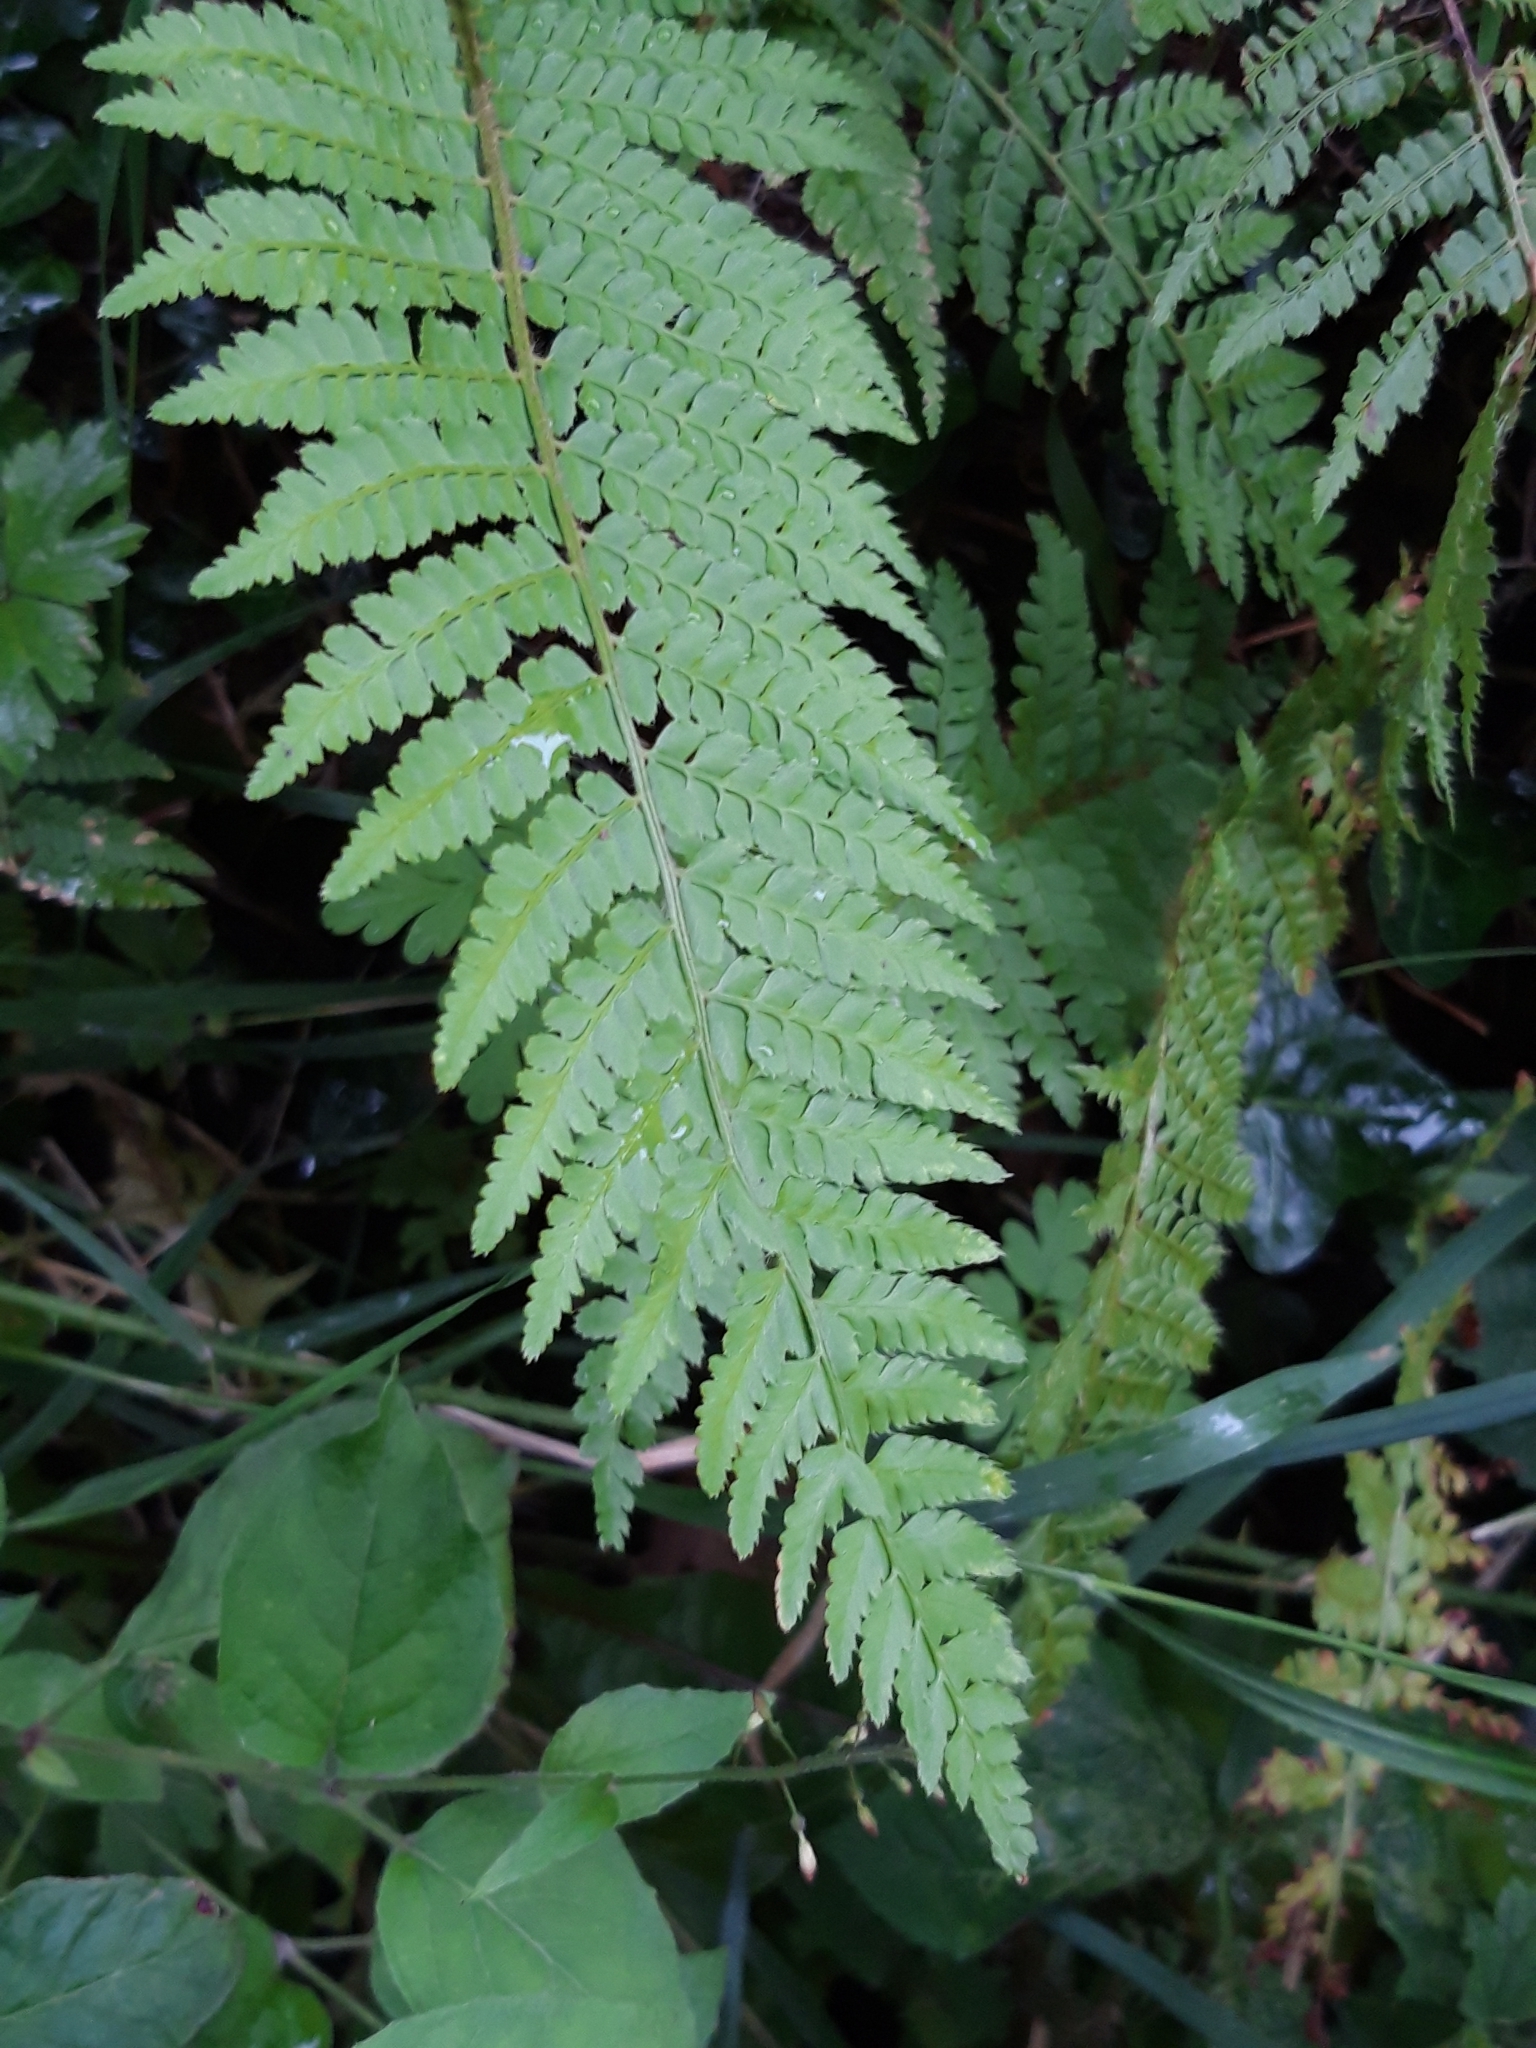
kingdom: Plantae
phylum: Tracheophyta
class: Polypodiopsida
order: Polypodiales
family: Dryopteridaceae
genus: Polystichum
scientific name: Polystichum setiferum
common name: Soft shield-fern
